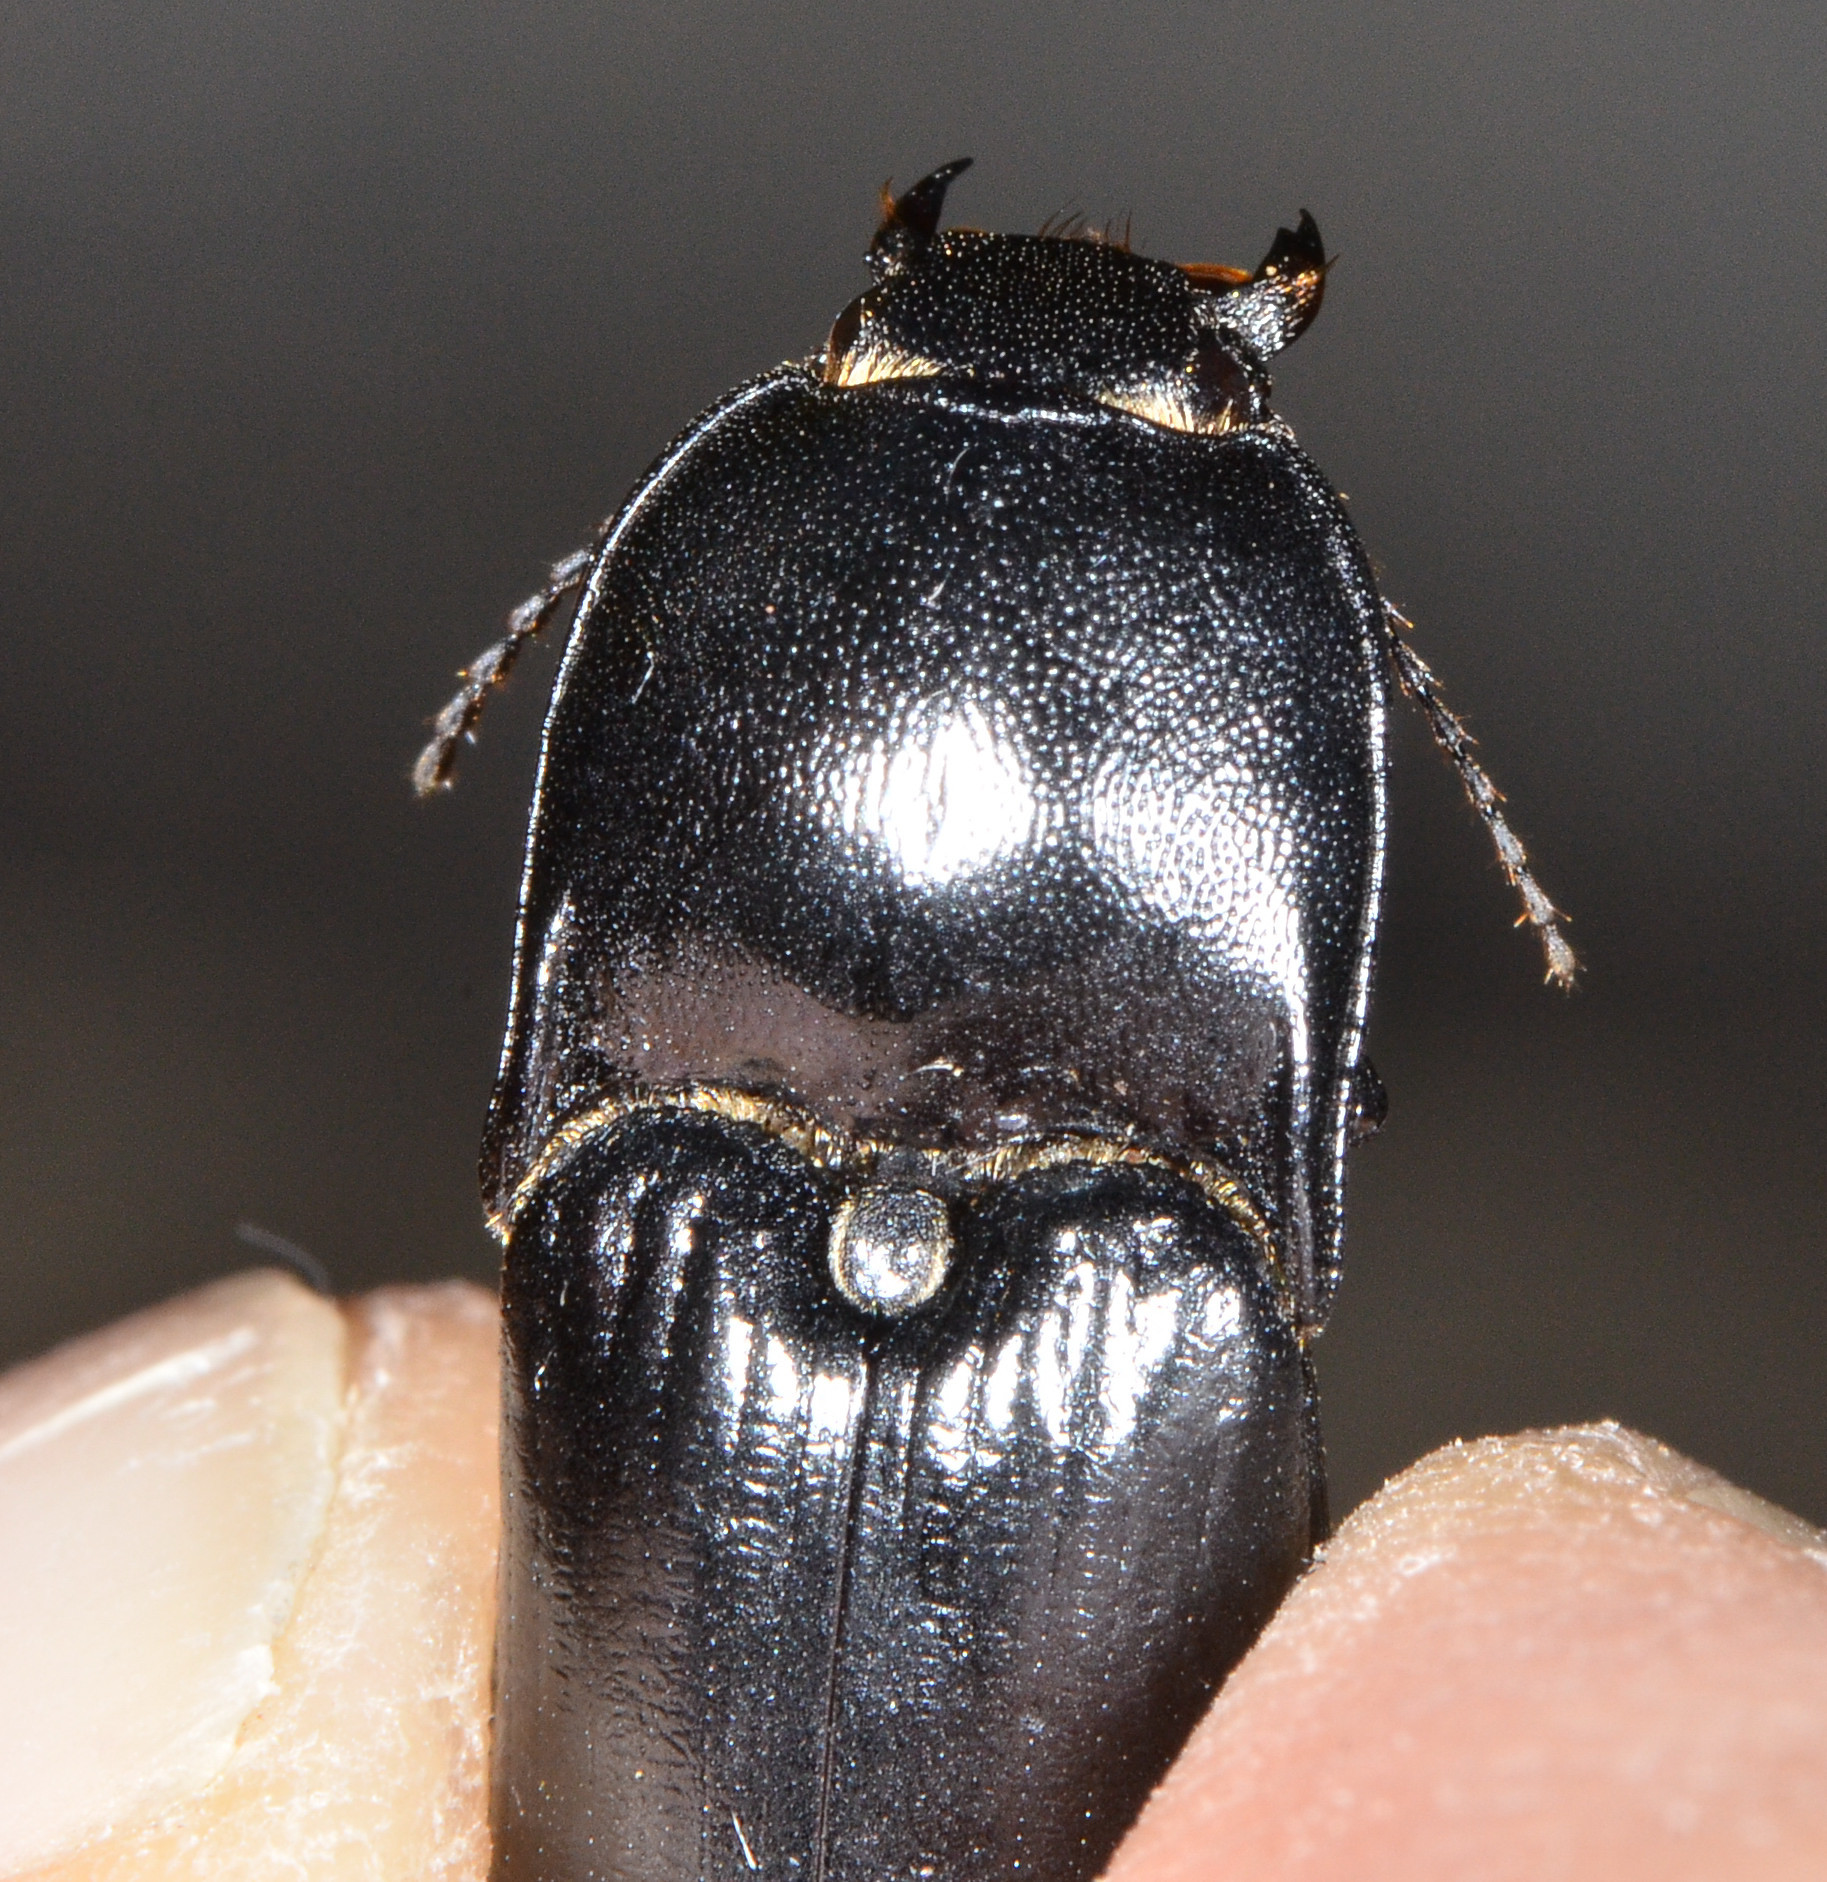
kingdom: Animalia
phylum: Arthropoda
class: Insecta
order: Coleoptera
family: Elateridae
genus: Melanactes
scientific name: Melanactes
